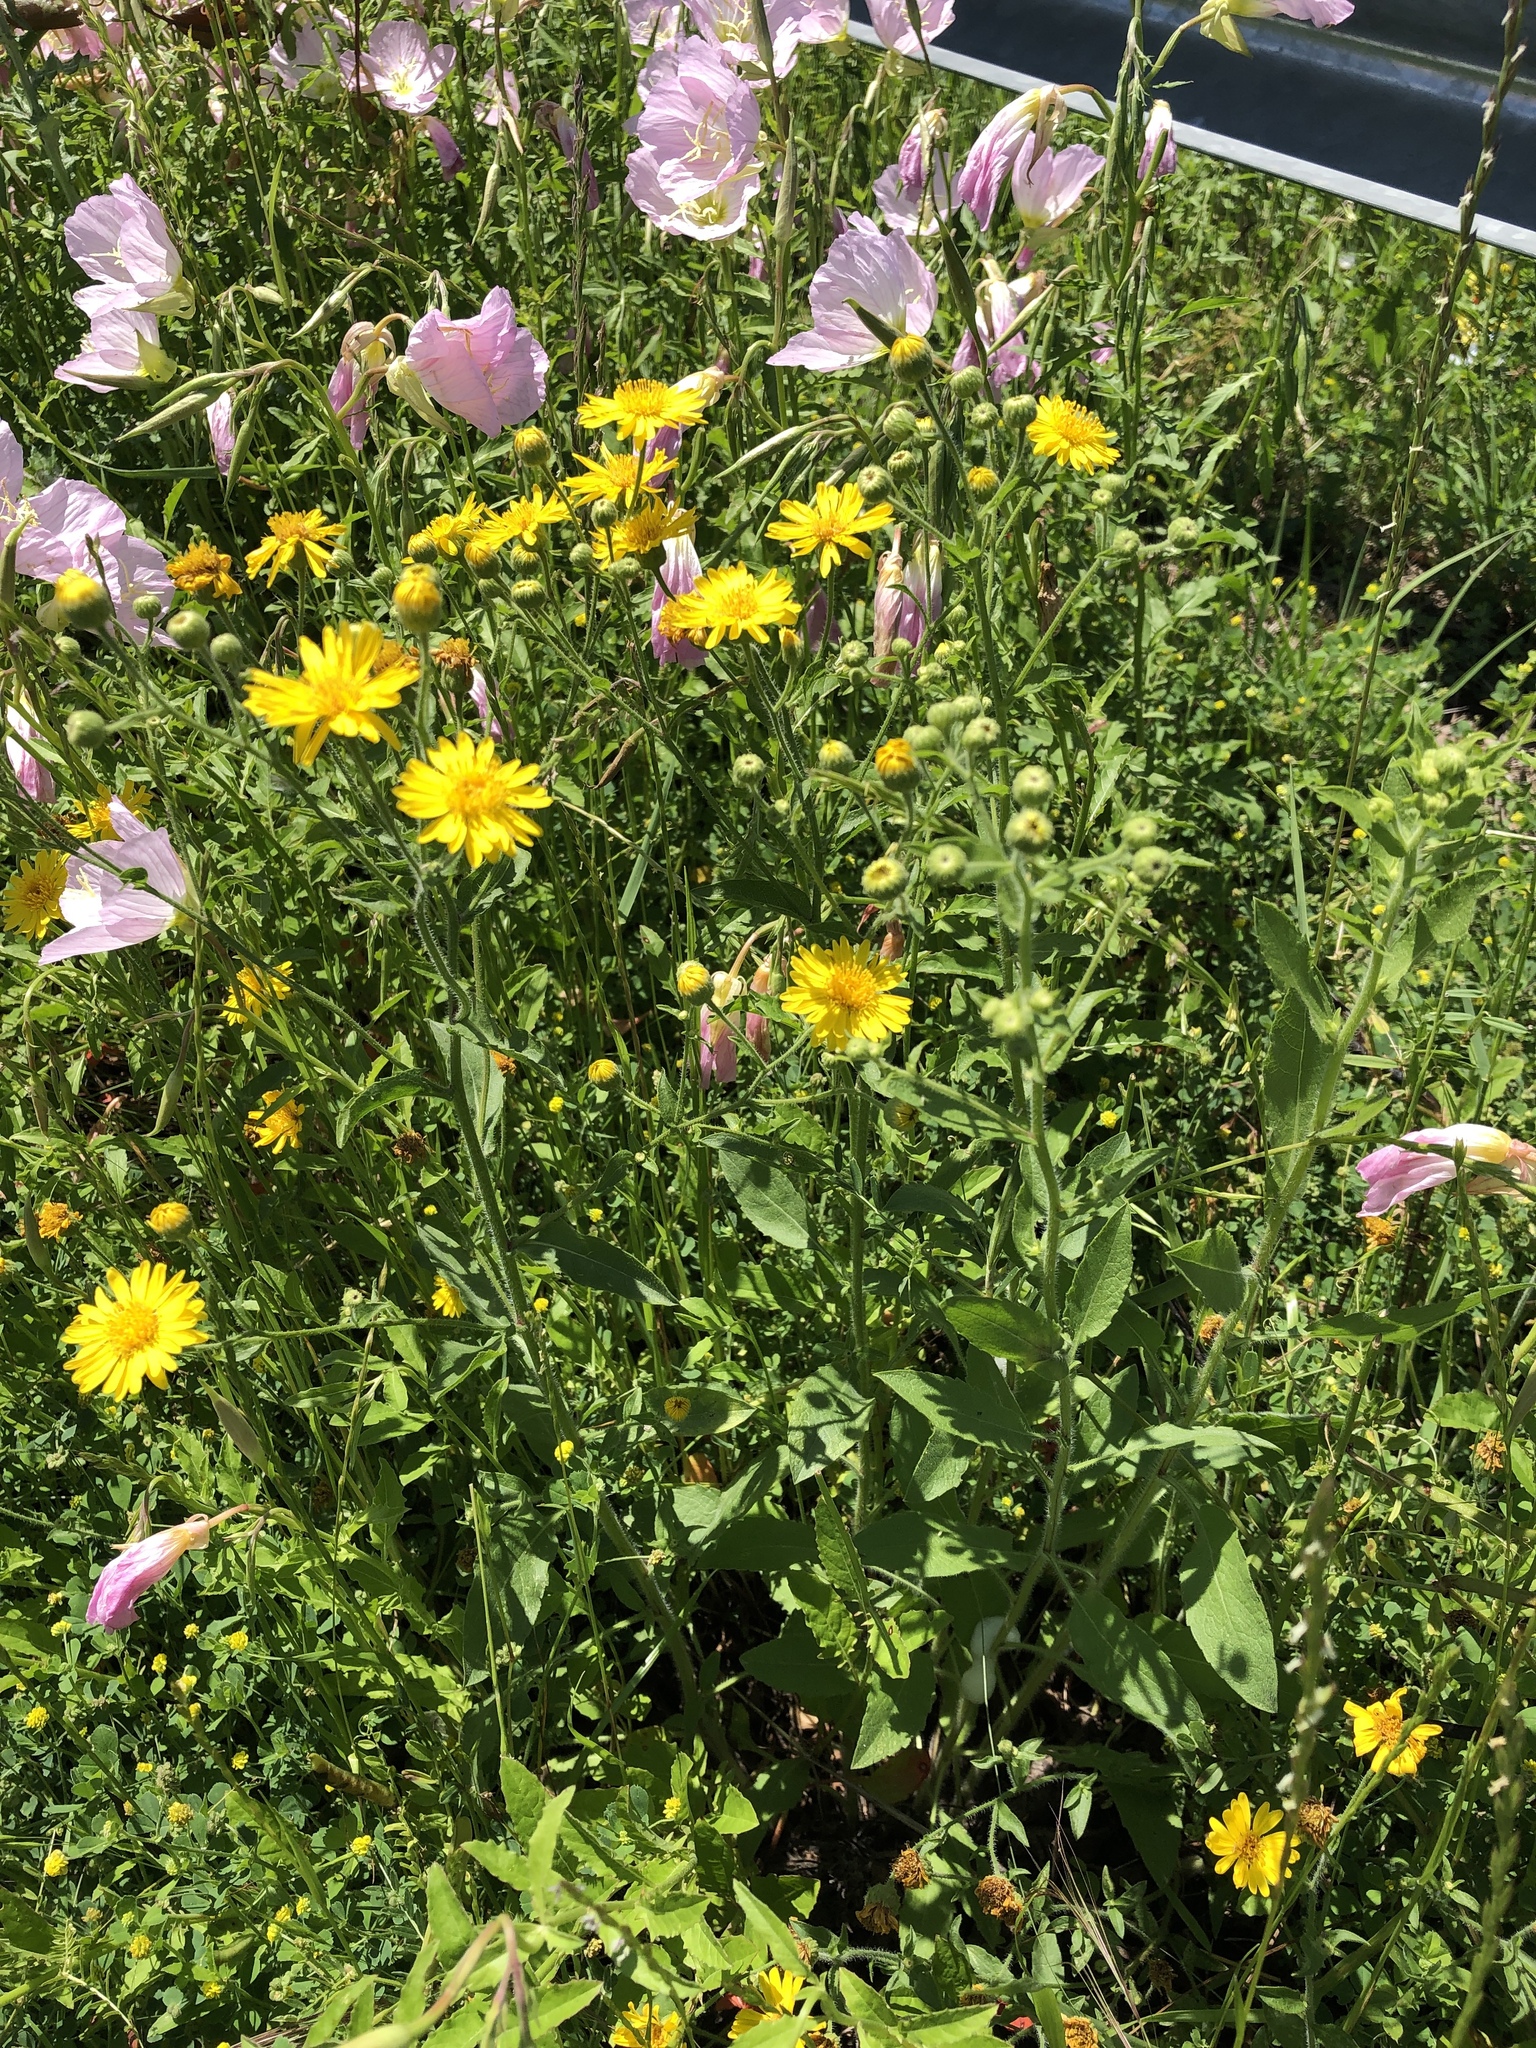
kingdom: Plantae
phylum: Tracheophyta
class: Magnoliopsida
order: Asterales
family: Asteraceae
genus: Heterotheca
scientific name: Heterotheca subaxillaris
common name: Camphorweed
